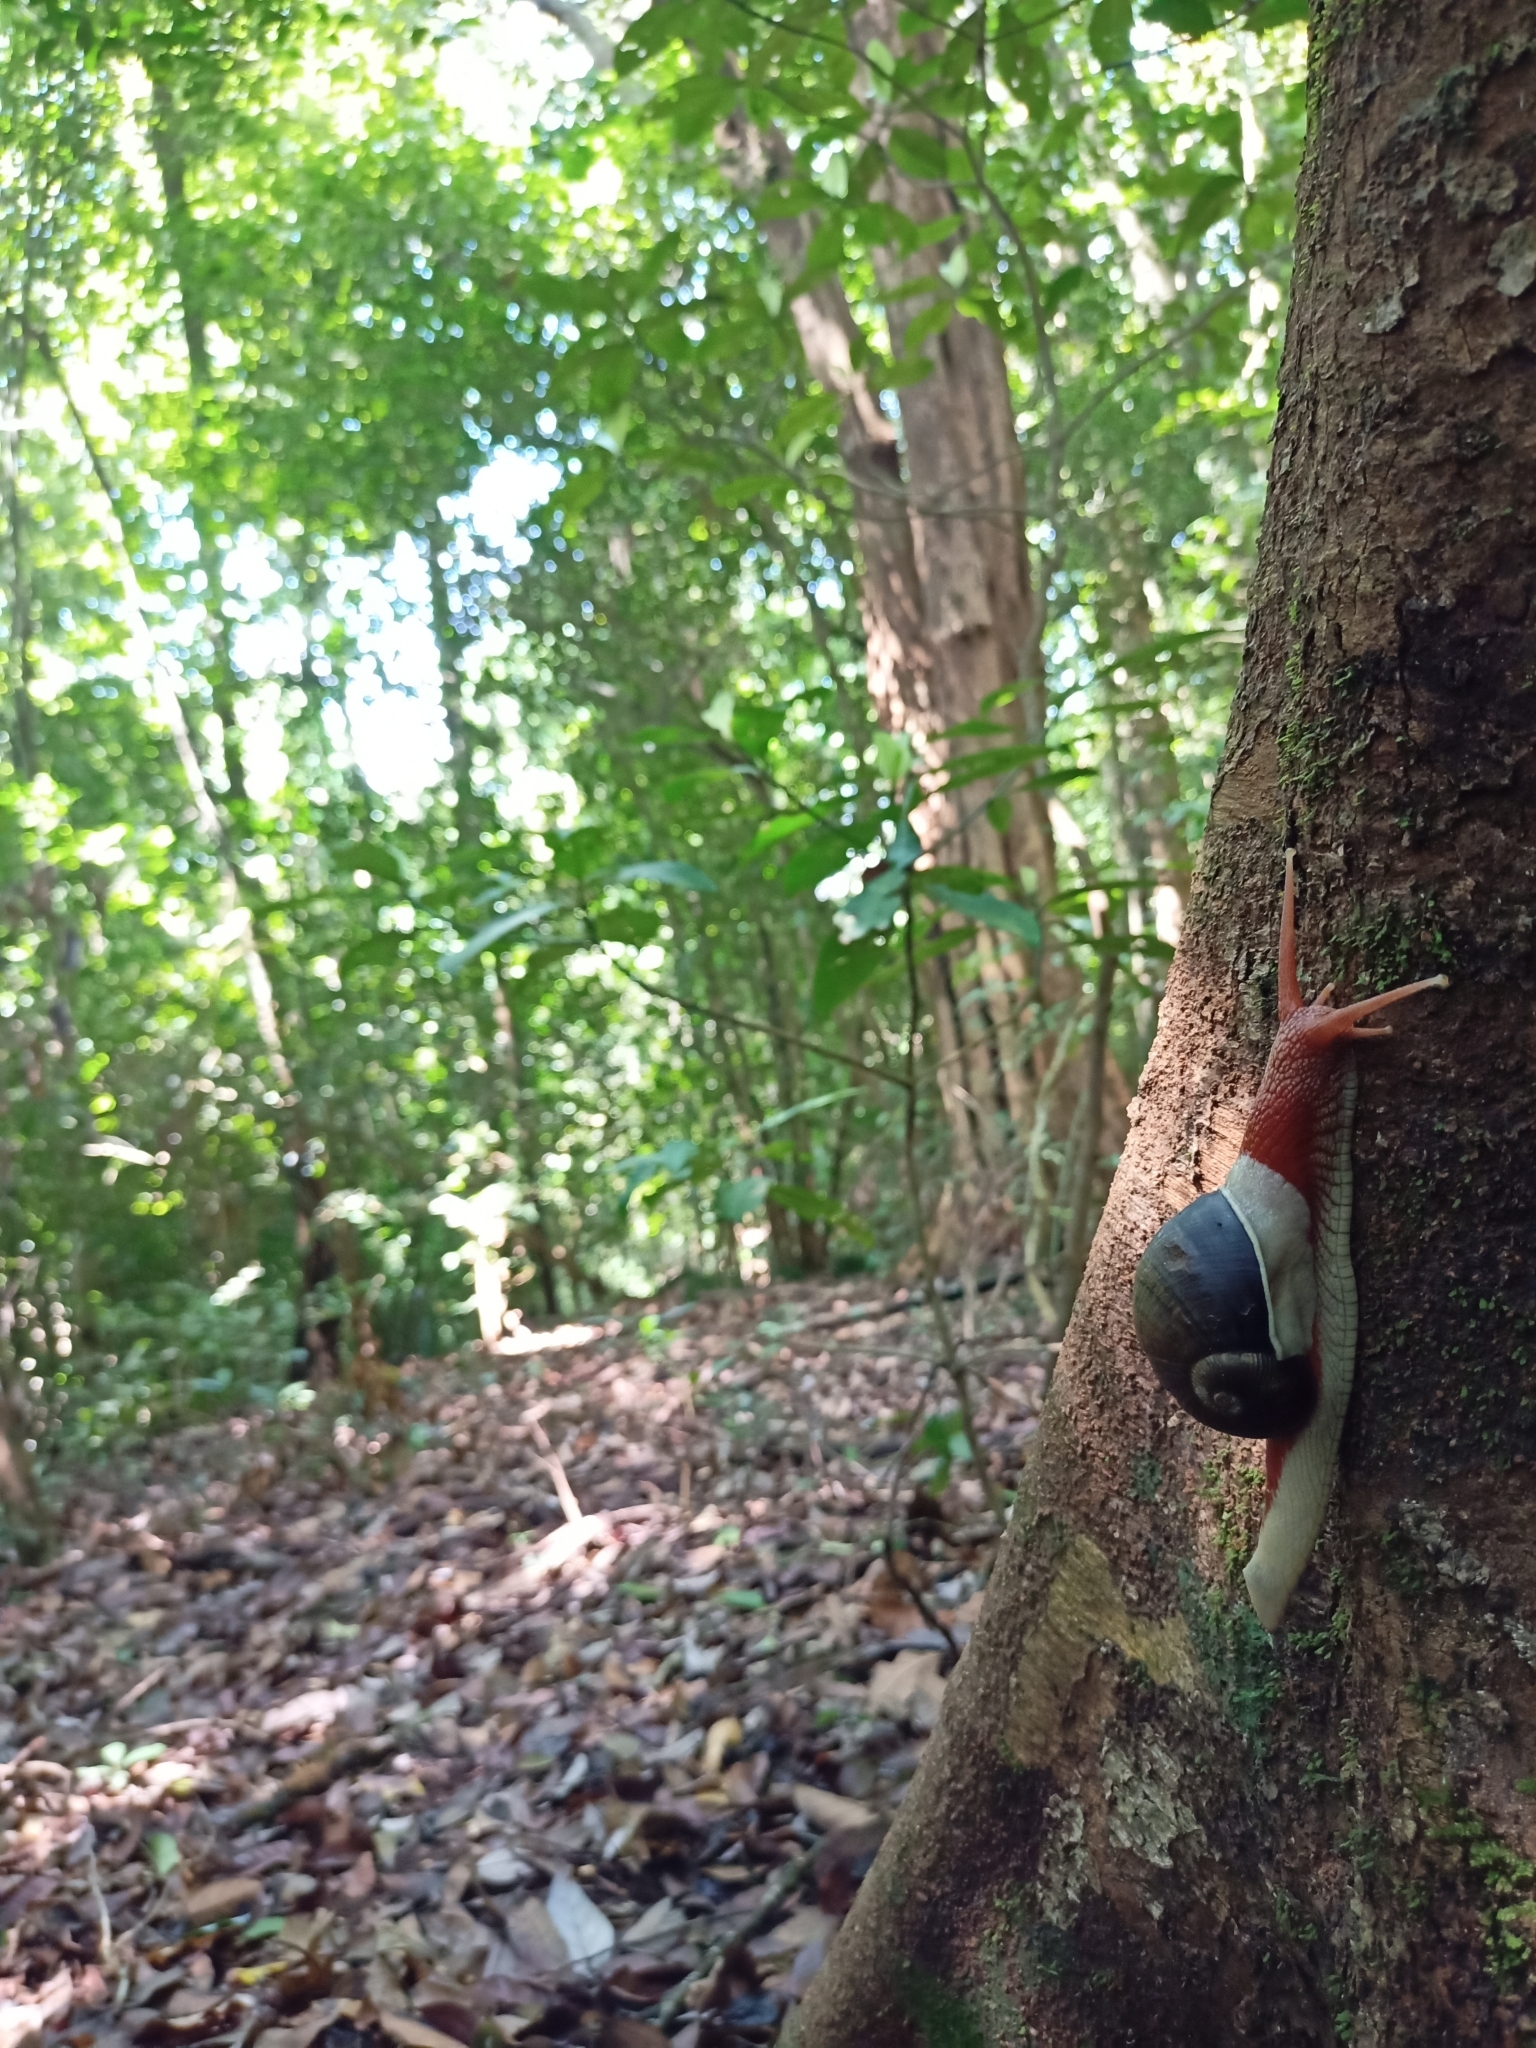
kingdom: Animalia
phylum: Mollusca
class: Gastropoda
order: Stylommatophora
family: Ariophantidae
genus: Indrella
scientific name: Indrella ampulla
